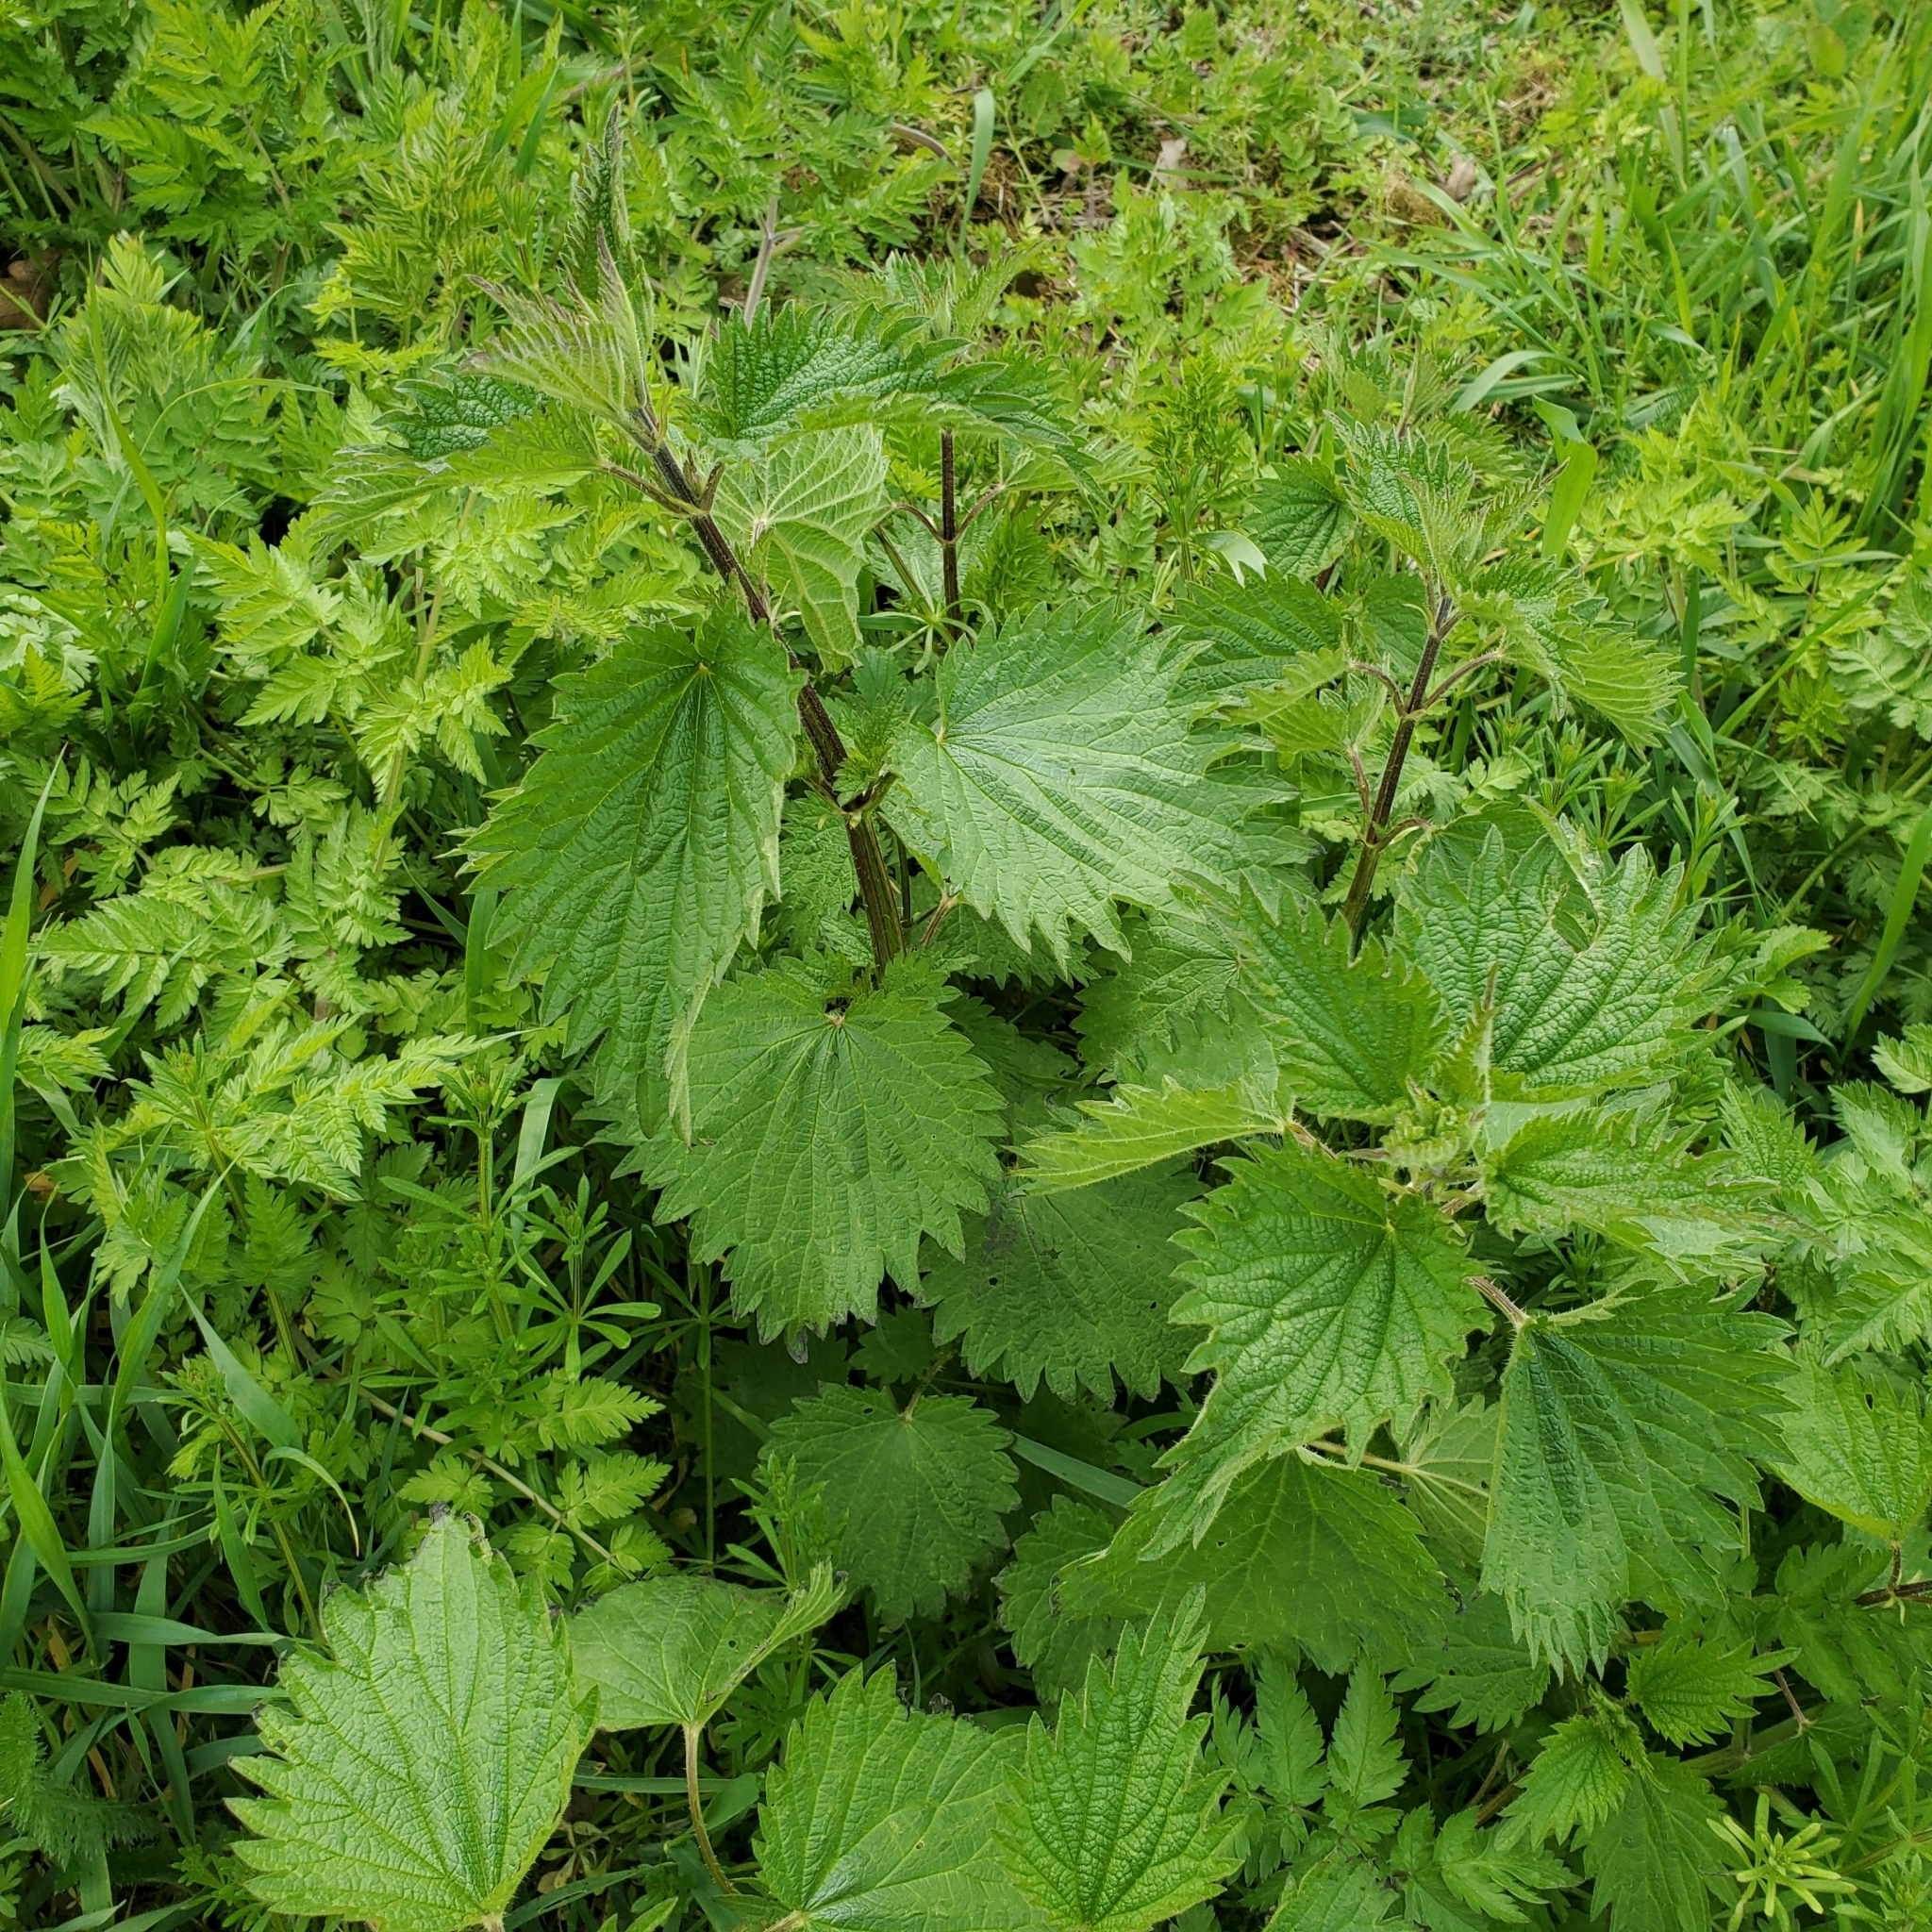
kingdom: Plantae
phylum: Tracheophyta
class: Magnoliopsida
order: Rosales
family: Urticaceae
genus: Urtica
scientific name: Urtica dioica
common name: Common nettle
